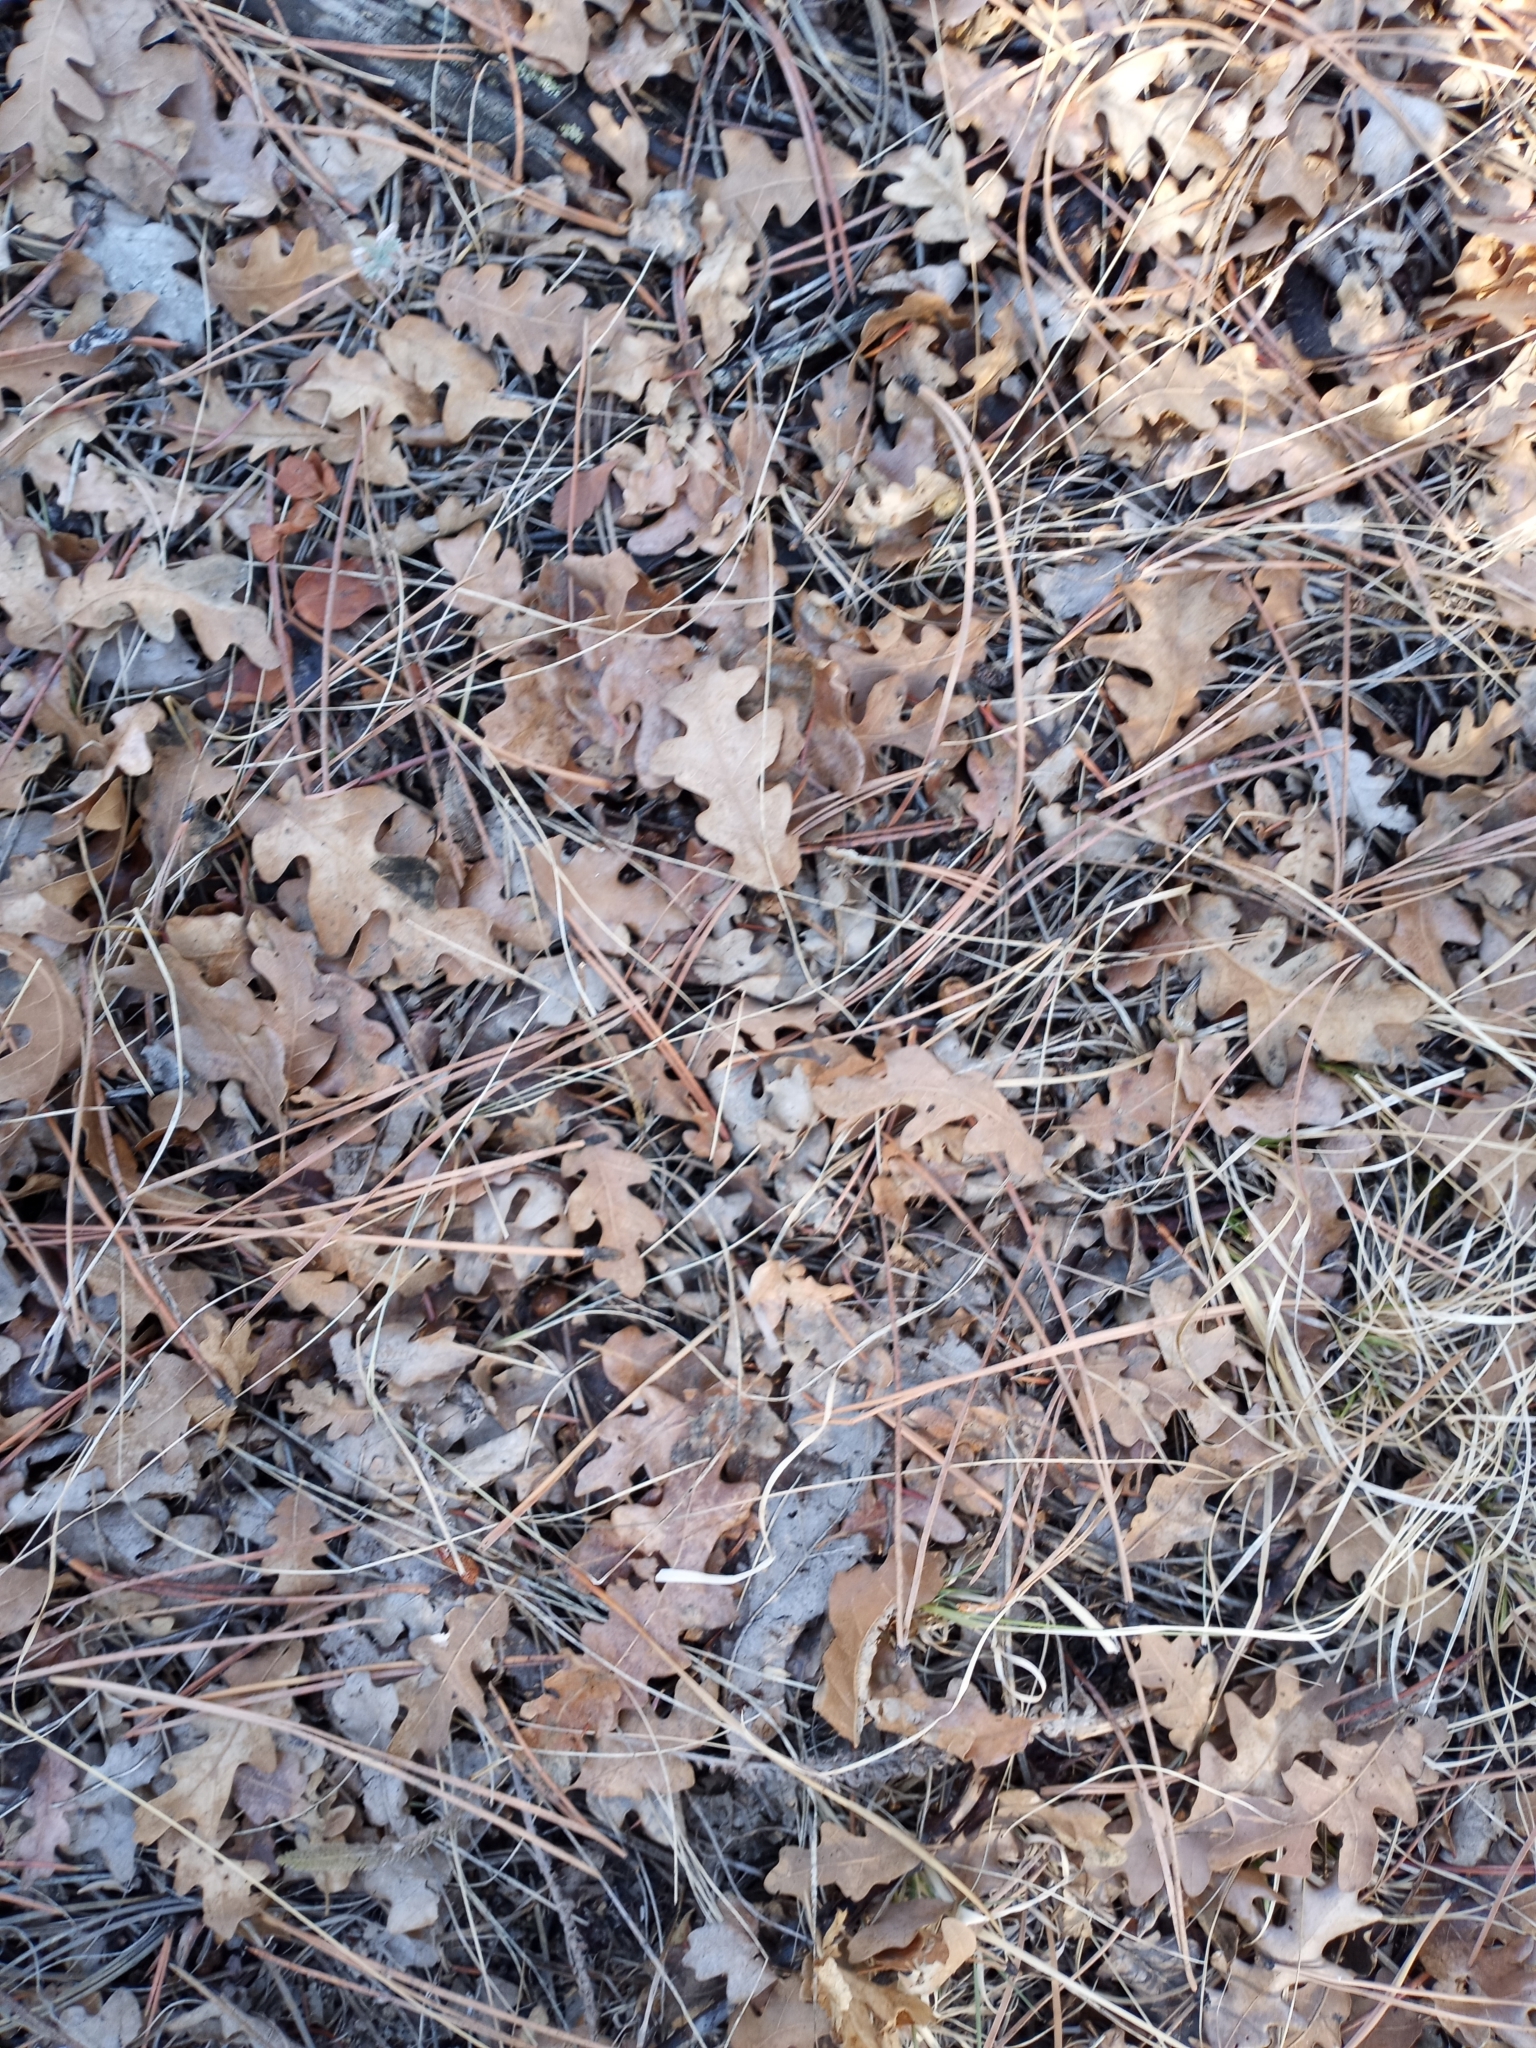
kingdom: Plantae
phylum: Tracheophyta
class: Magnoliopsida
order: Fagales
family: Fagaceae
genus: Quercus
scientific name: Quercus gambelii
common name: Gambel oak
